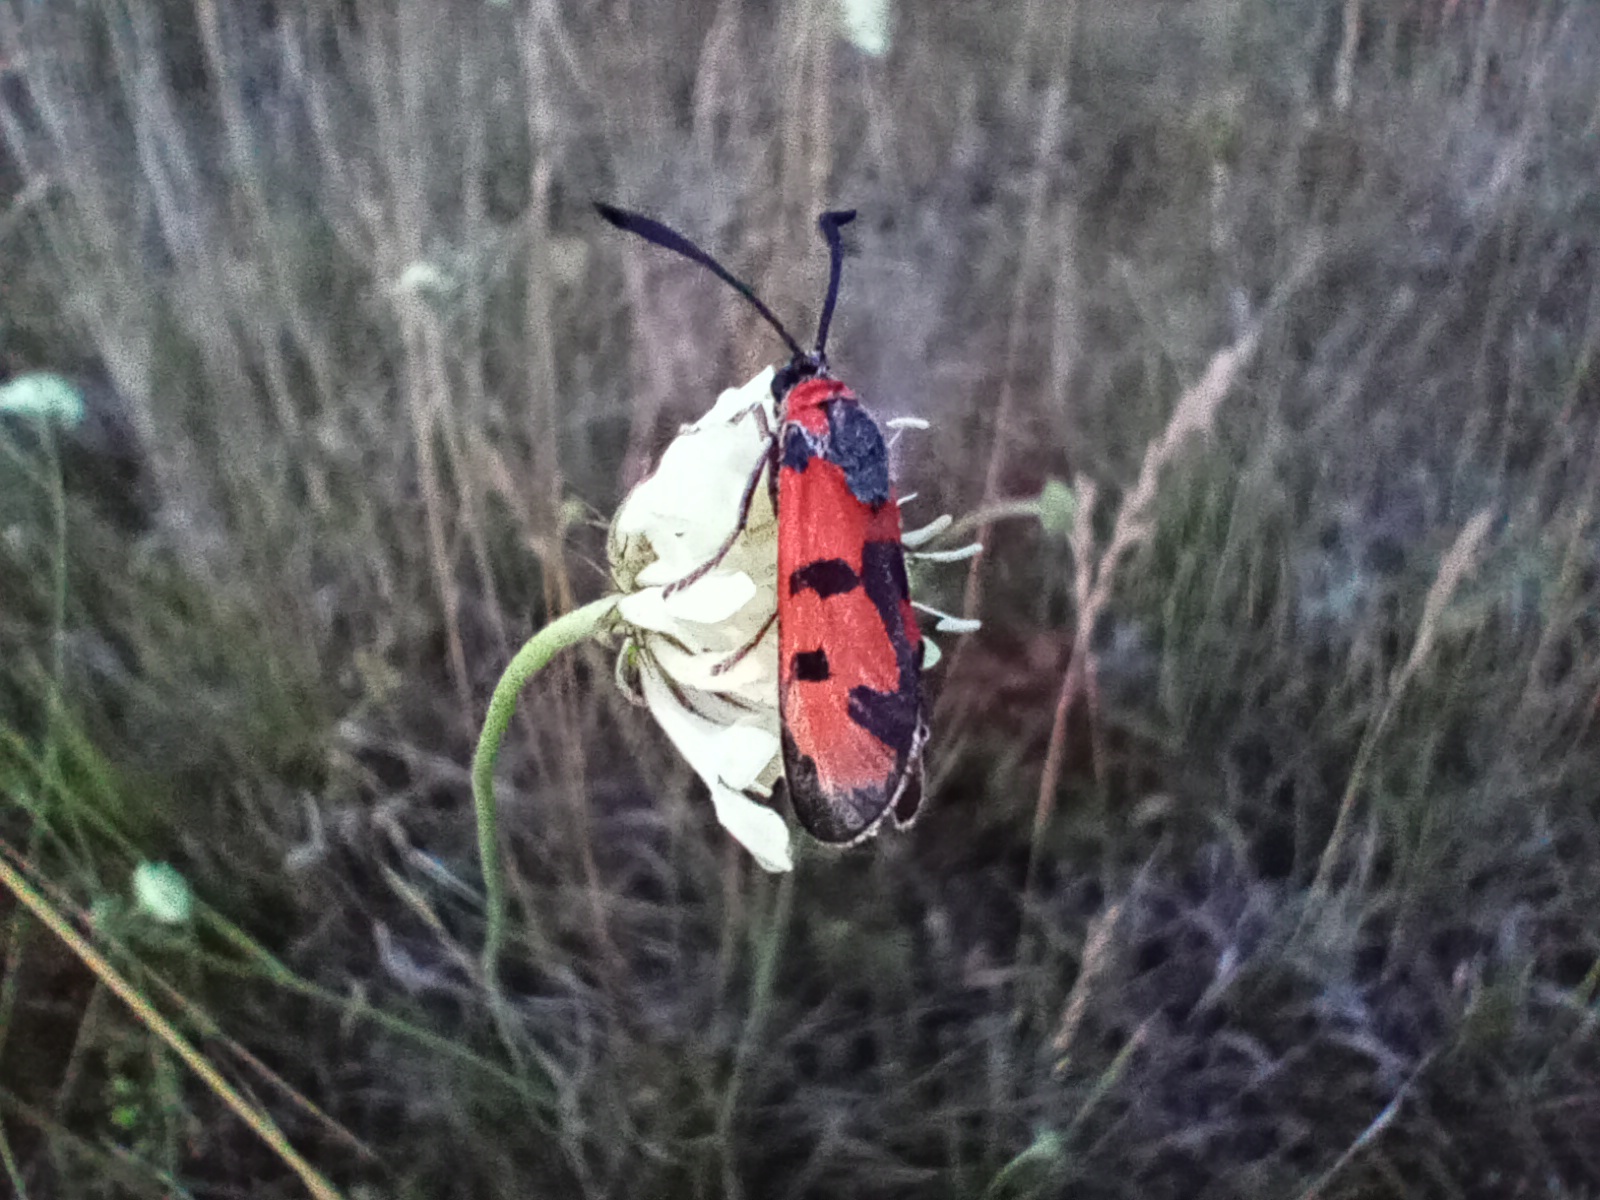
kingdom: Animalia
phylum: Arthropoda
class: Insecta
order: Lepidoptera
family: Zygaenidae
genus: Zygaena
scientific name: Zygaena laeta
